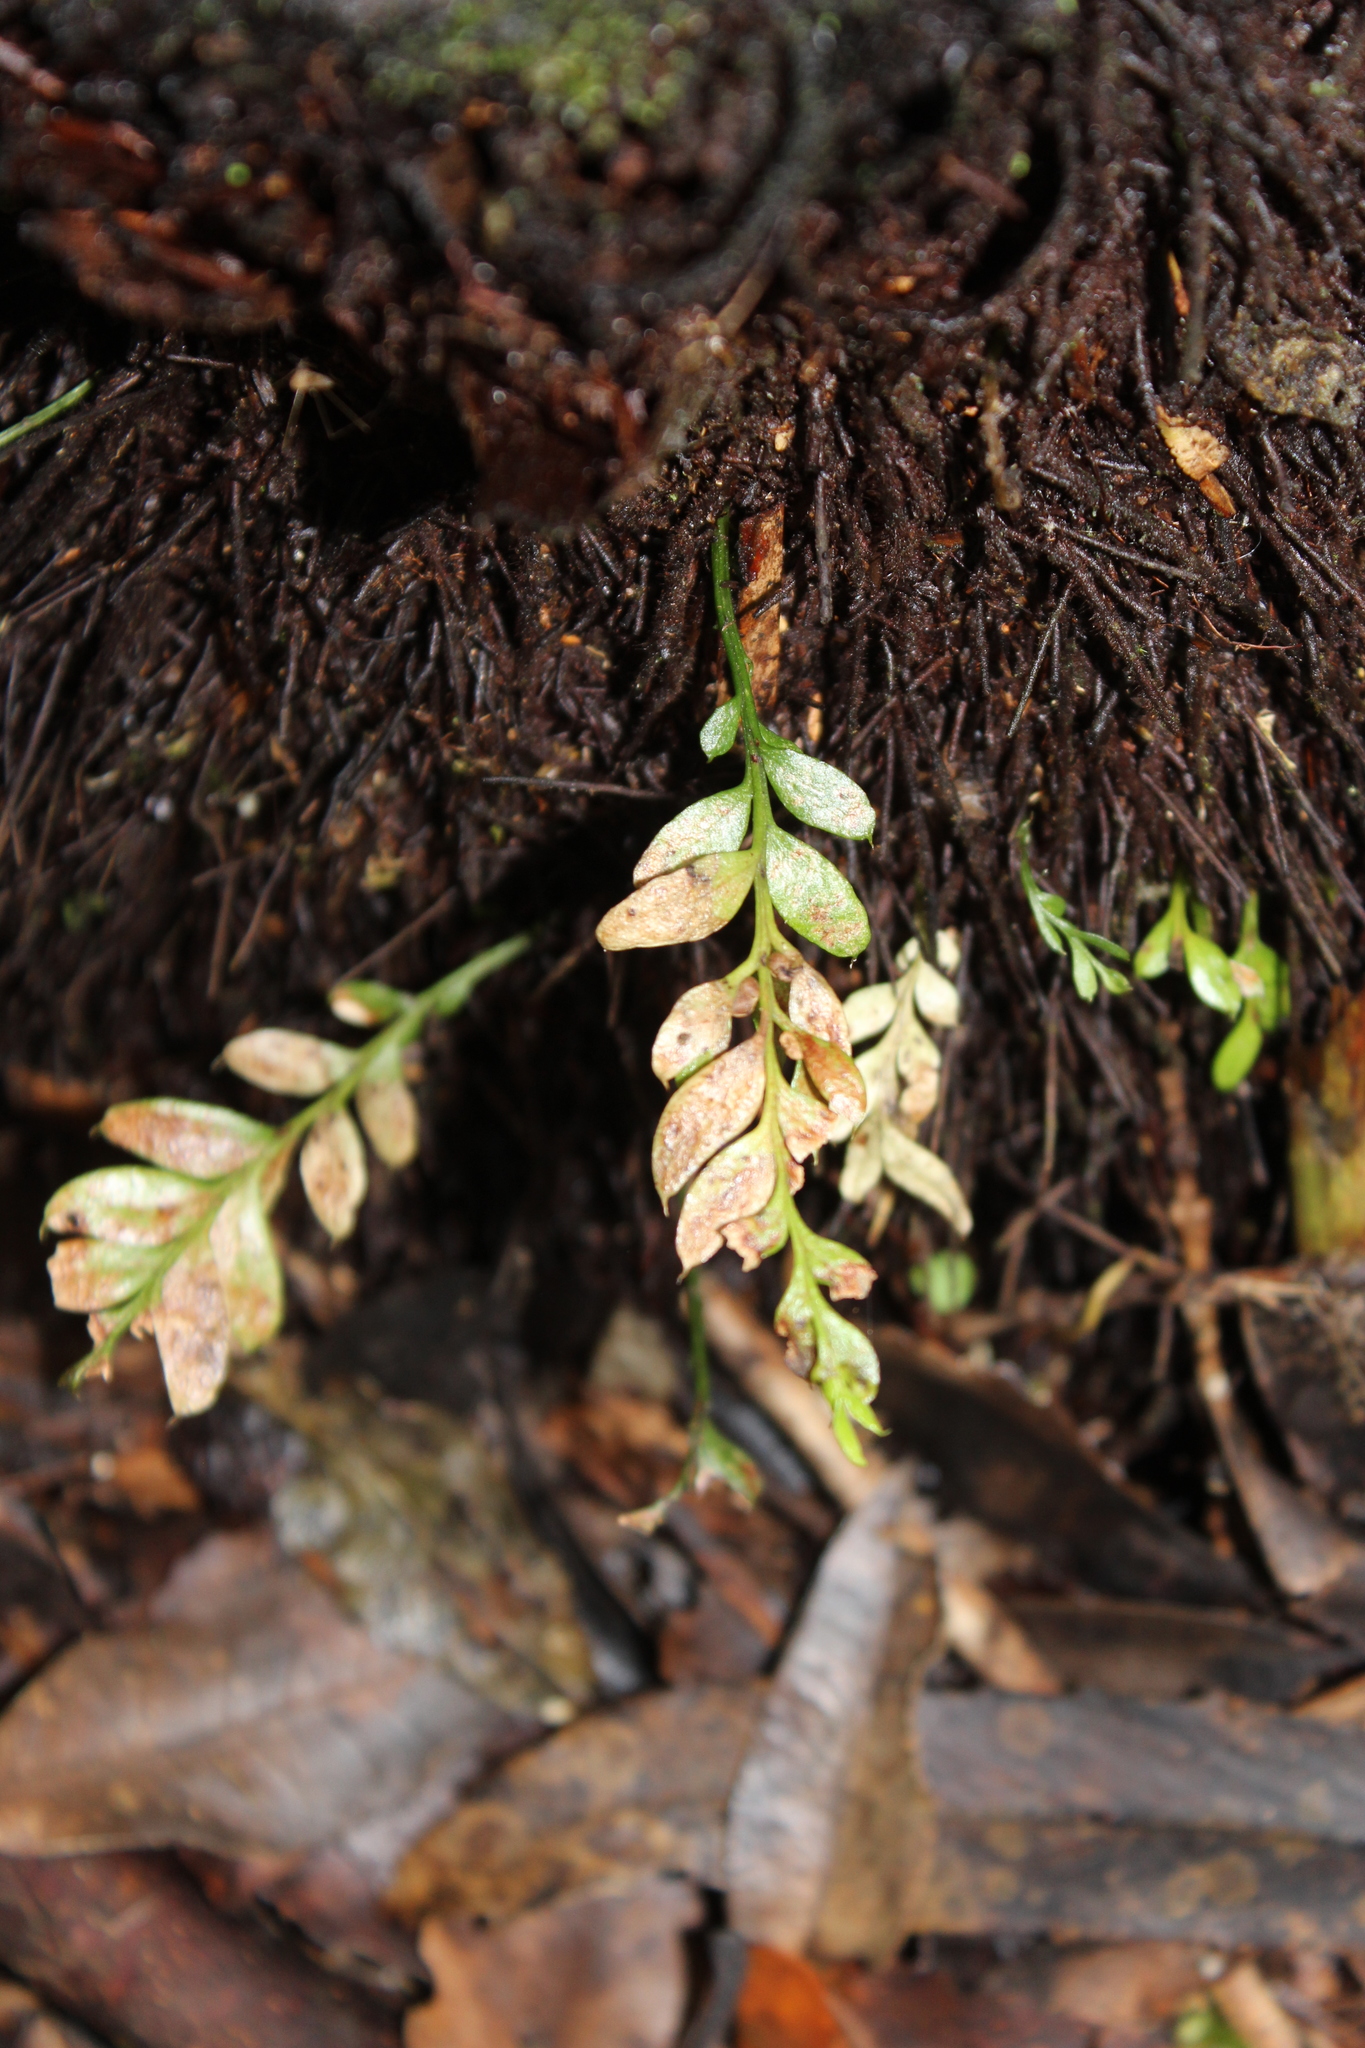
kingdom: Plantae
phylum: Tracheophyta
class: Polypodiopsida
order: Psilotales
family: Psilotaceae
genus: Tmesipteris
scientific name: Tmesipteris lanceolata
